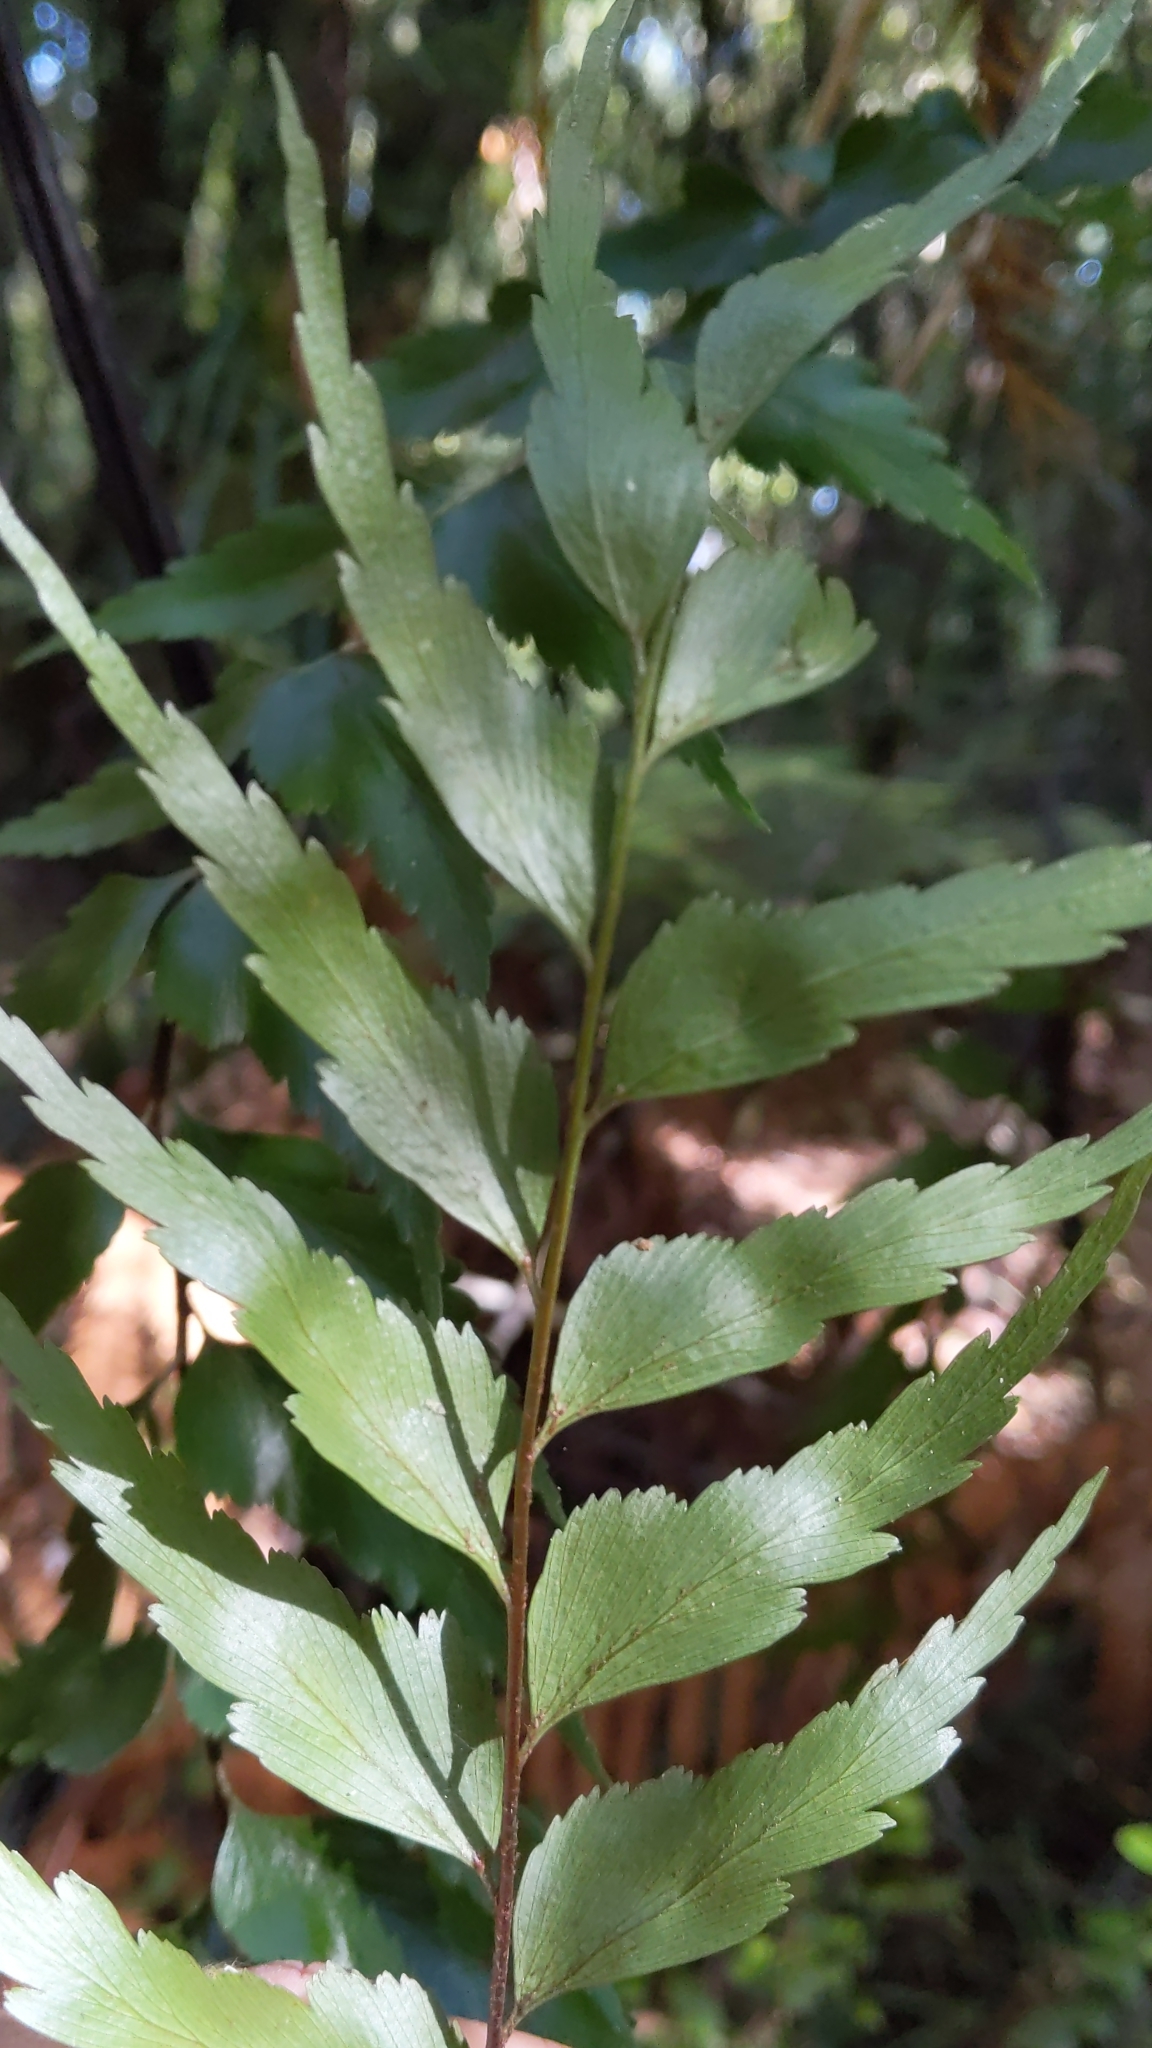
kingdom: Plantae
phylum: Tracheophyta
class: Polypodiopsida
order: Polypodiales
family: Aspleniaceae
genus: Asplenium
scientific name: Asplenium polyodon
